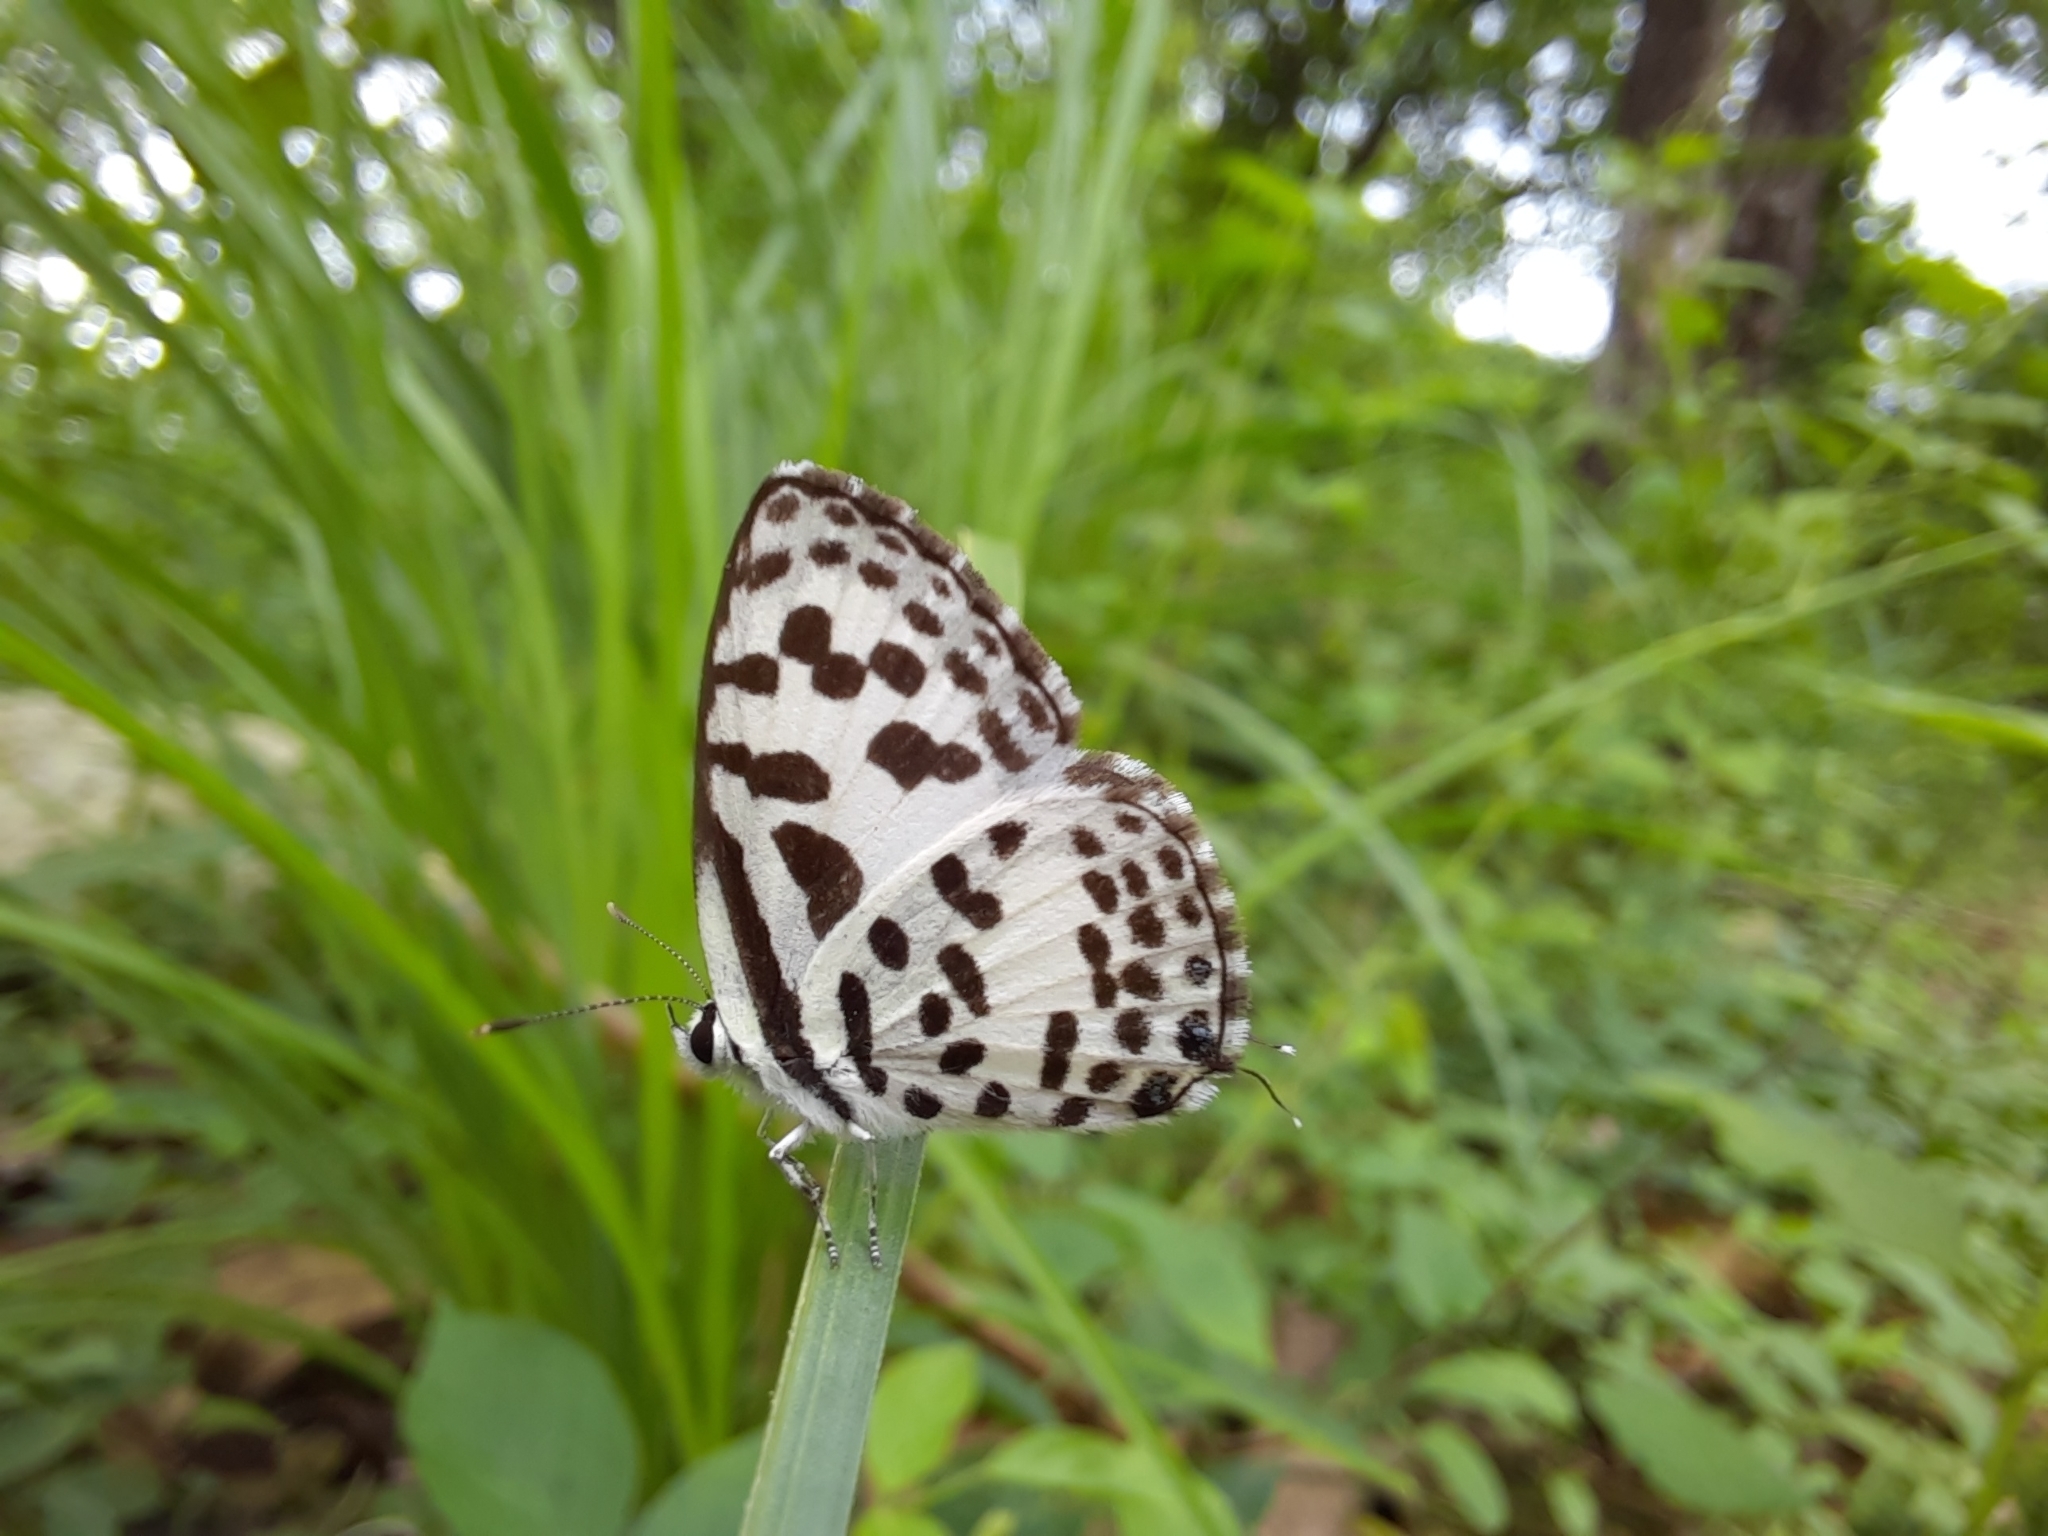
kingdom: Animalia
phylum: Arthropoda
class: Insecta
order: Lepidoptera
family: Lycaenidae
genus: Castalius
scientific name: Castalius rosimon
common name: Common pierrot
